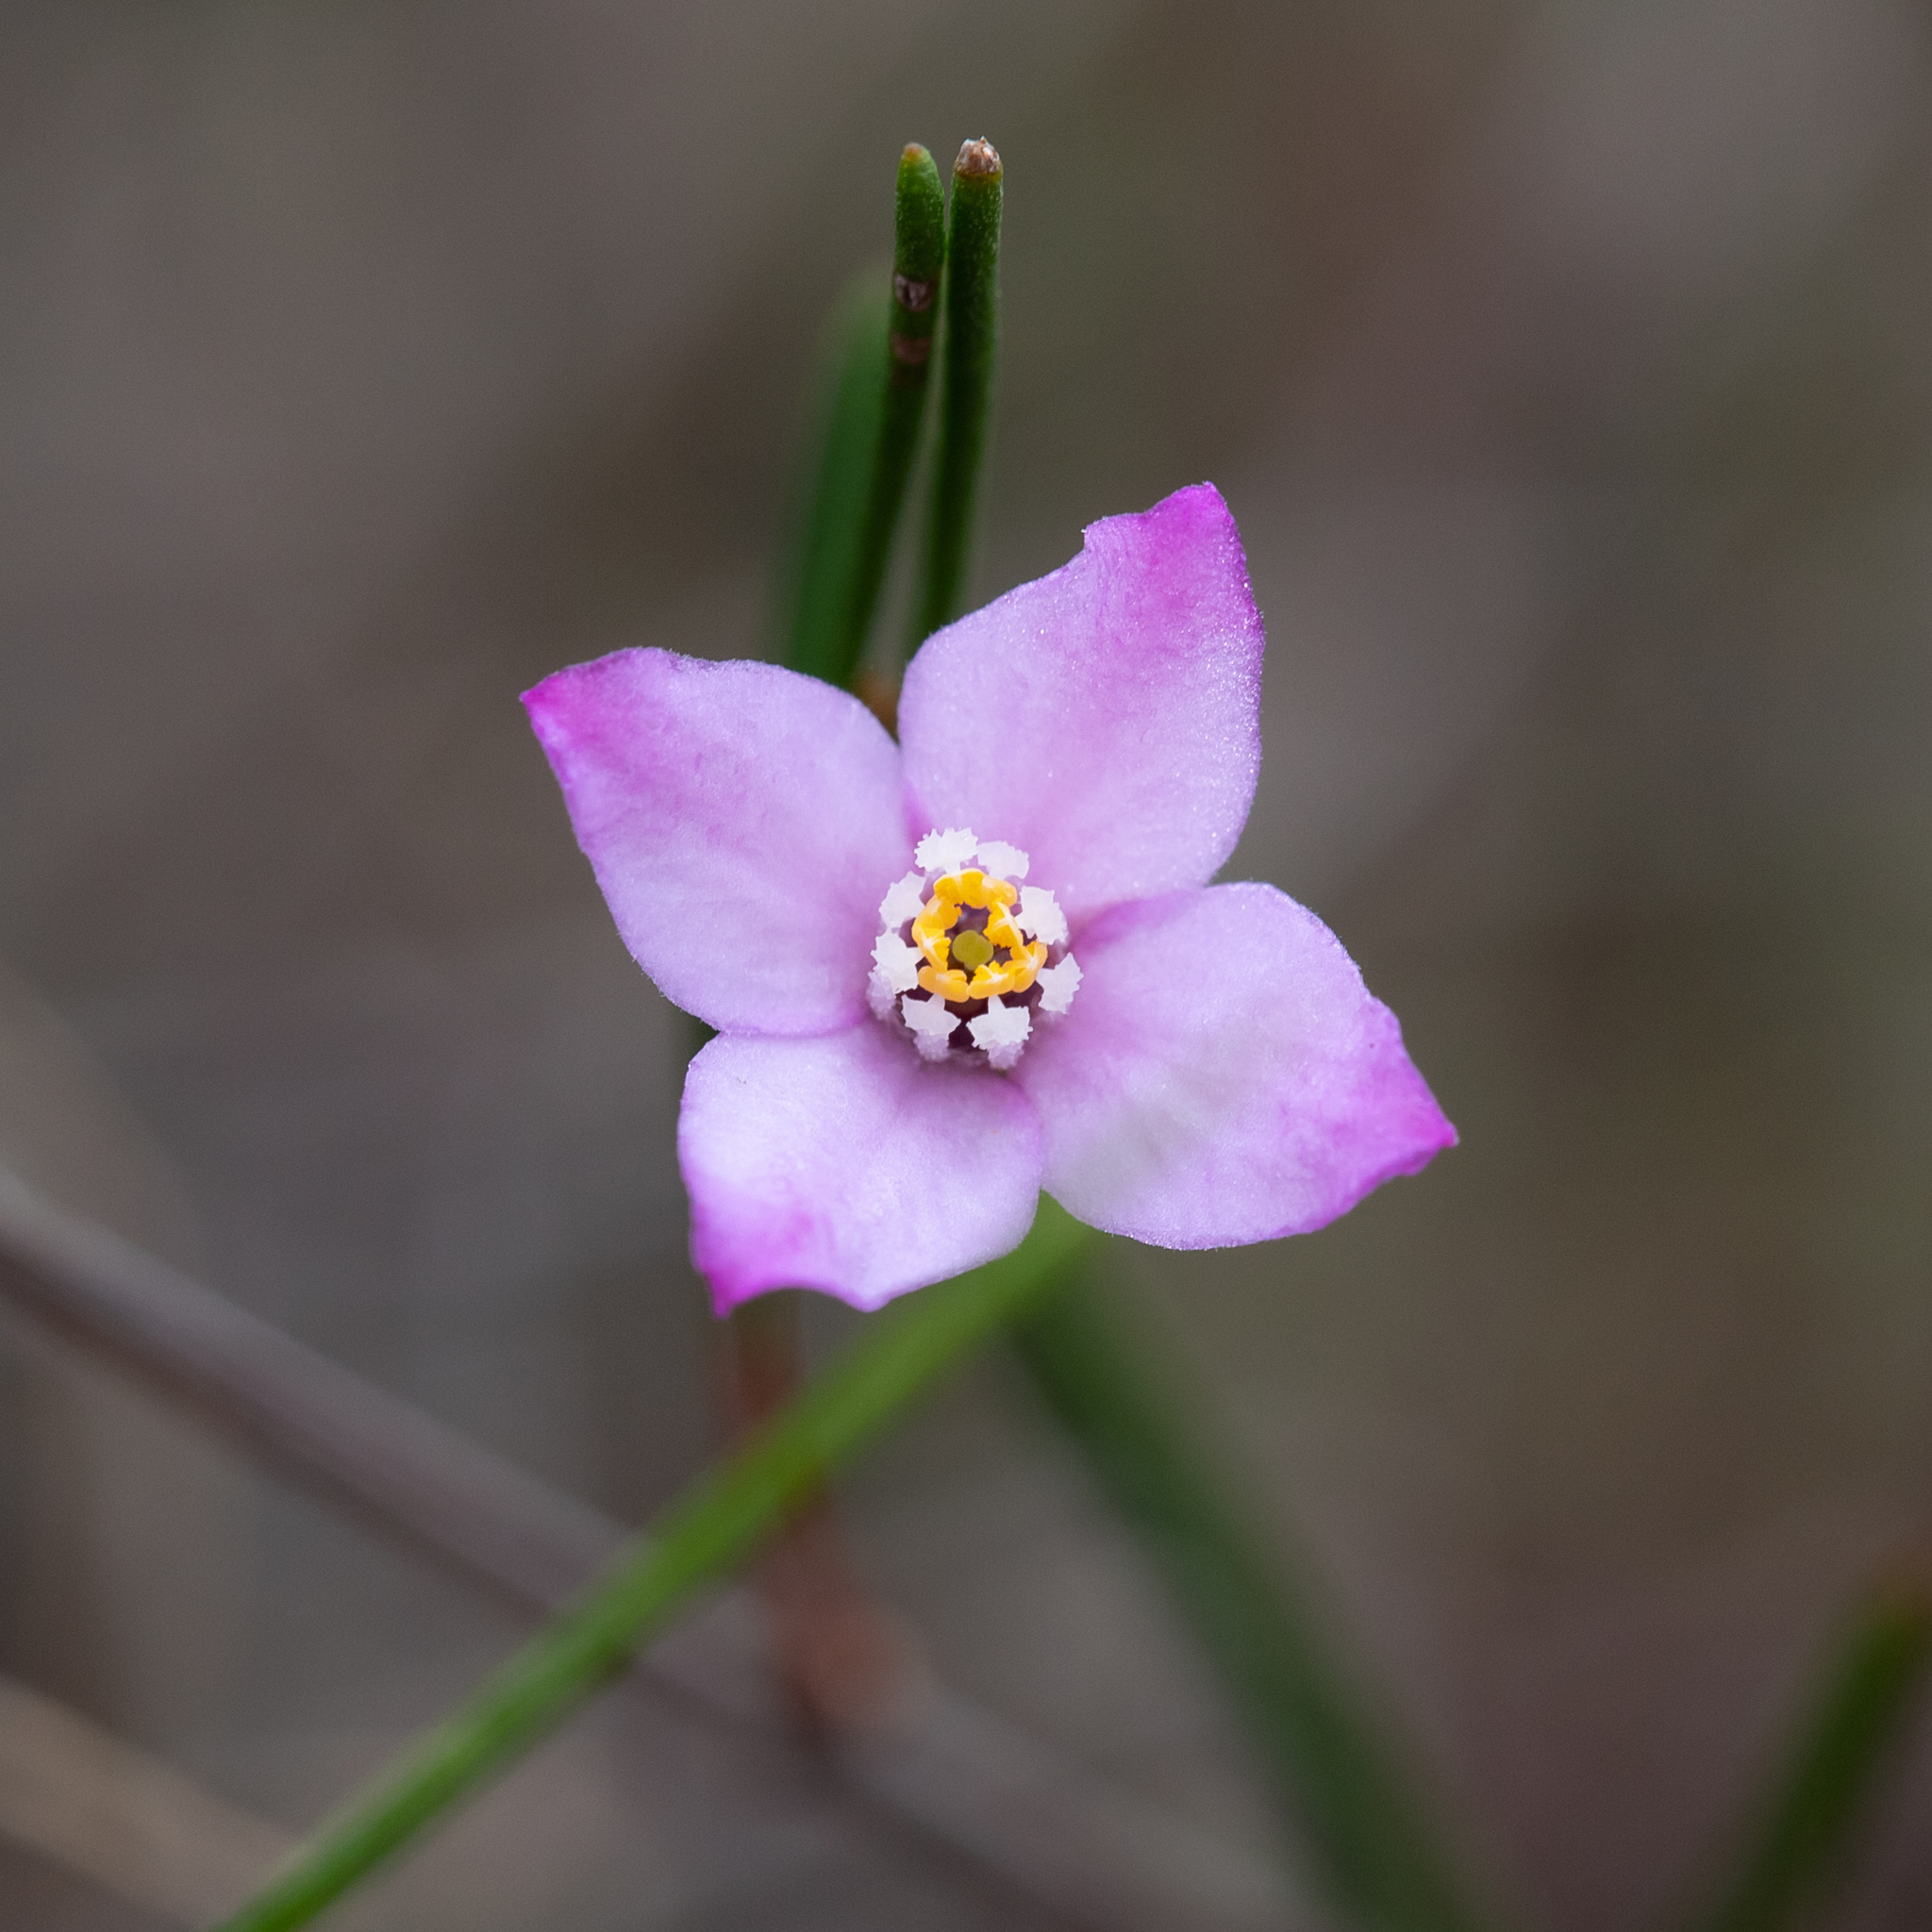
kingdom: Plantae
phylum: Tracheophyta
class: Magnoliopsida
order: Sapindales
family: Rutaceae
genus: Boronia
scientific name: Boronia filifolia
